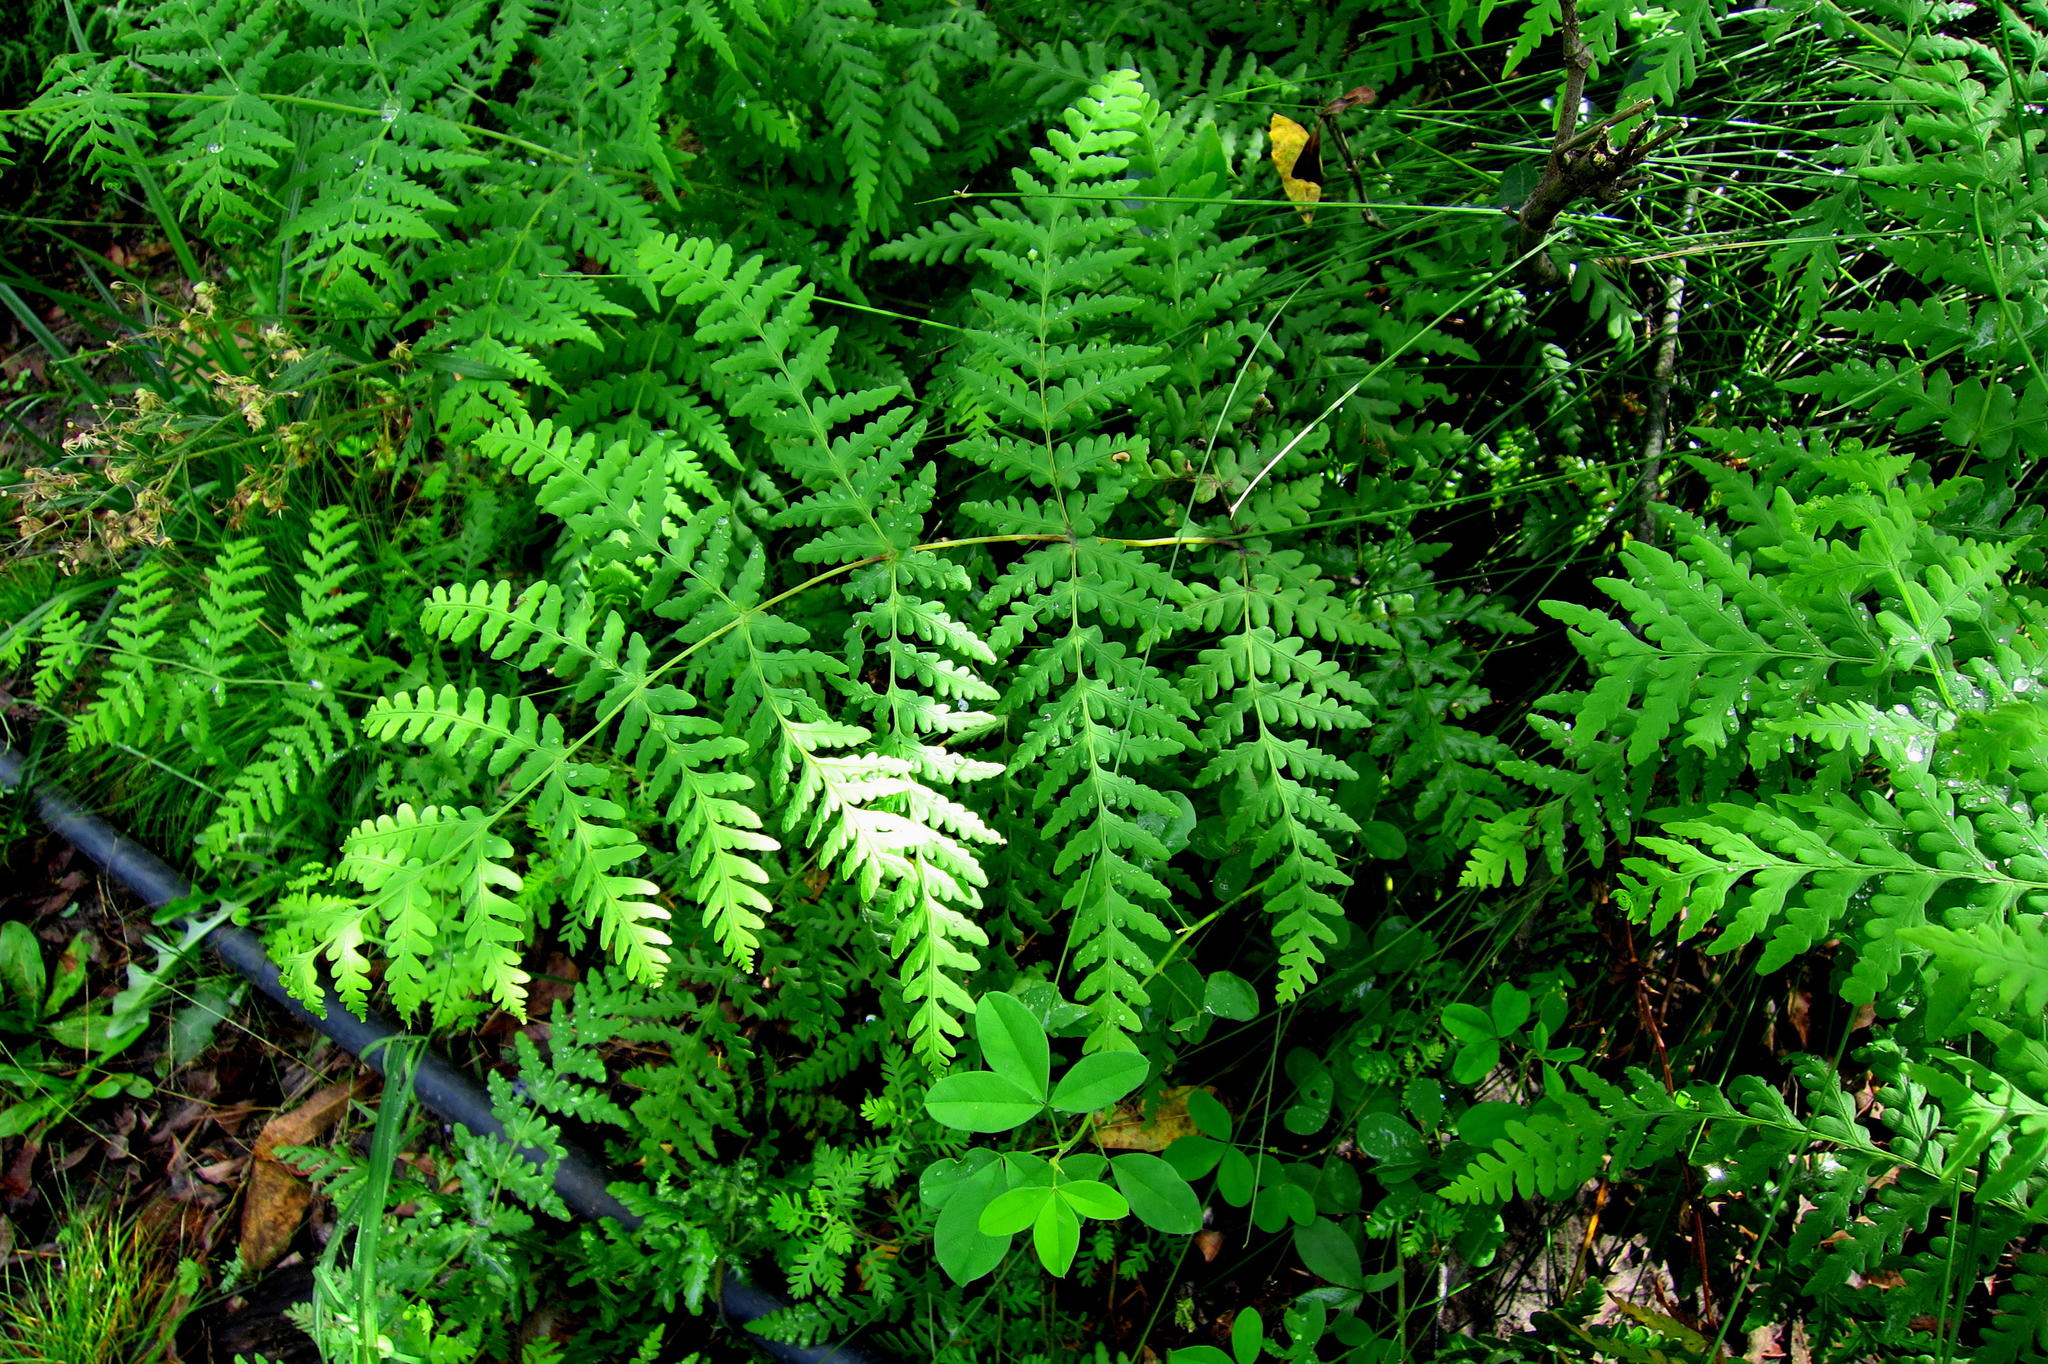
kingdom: Plantae
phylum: Tracheophyta
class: Polypodiopsida
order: Polypodiales
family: Dennstaedtiaceae
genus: Histiopteris
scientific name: Histiopteris incisa
